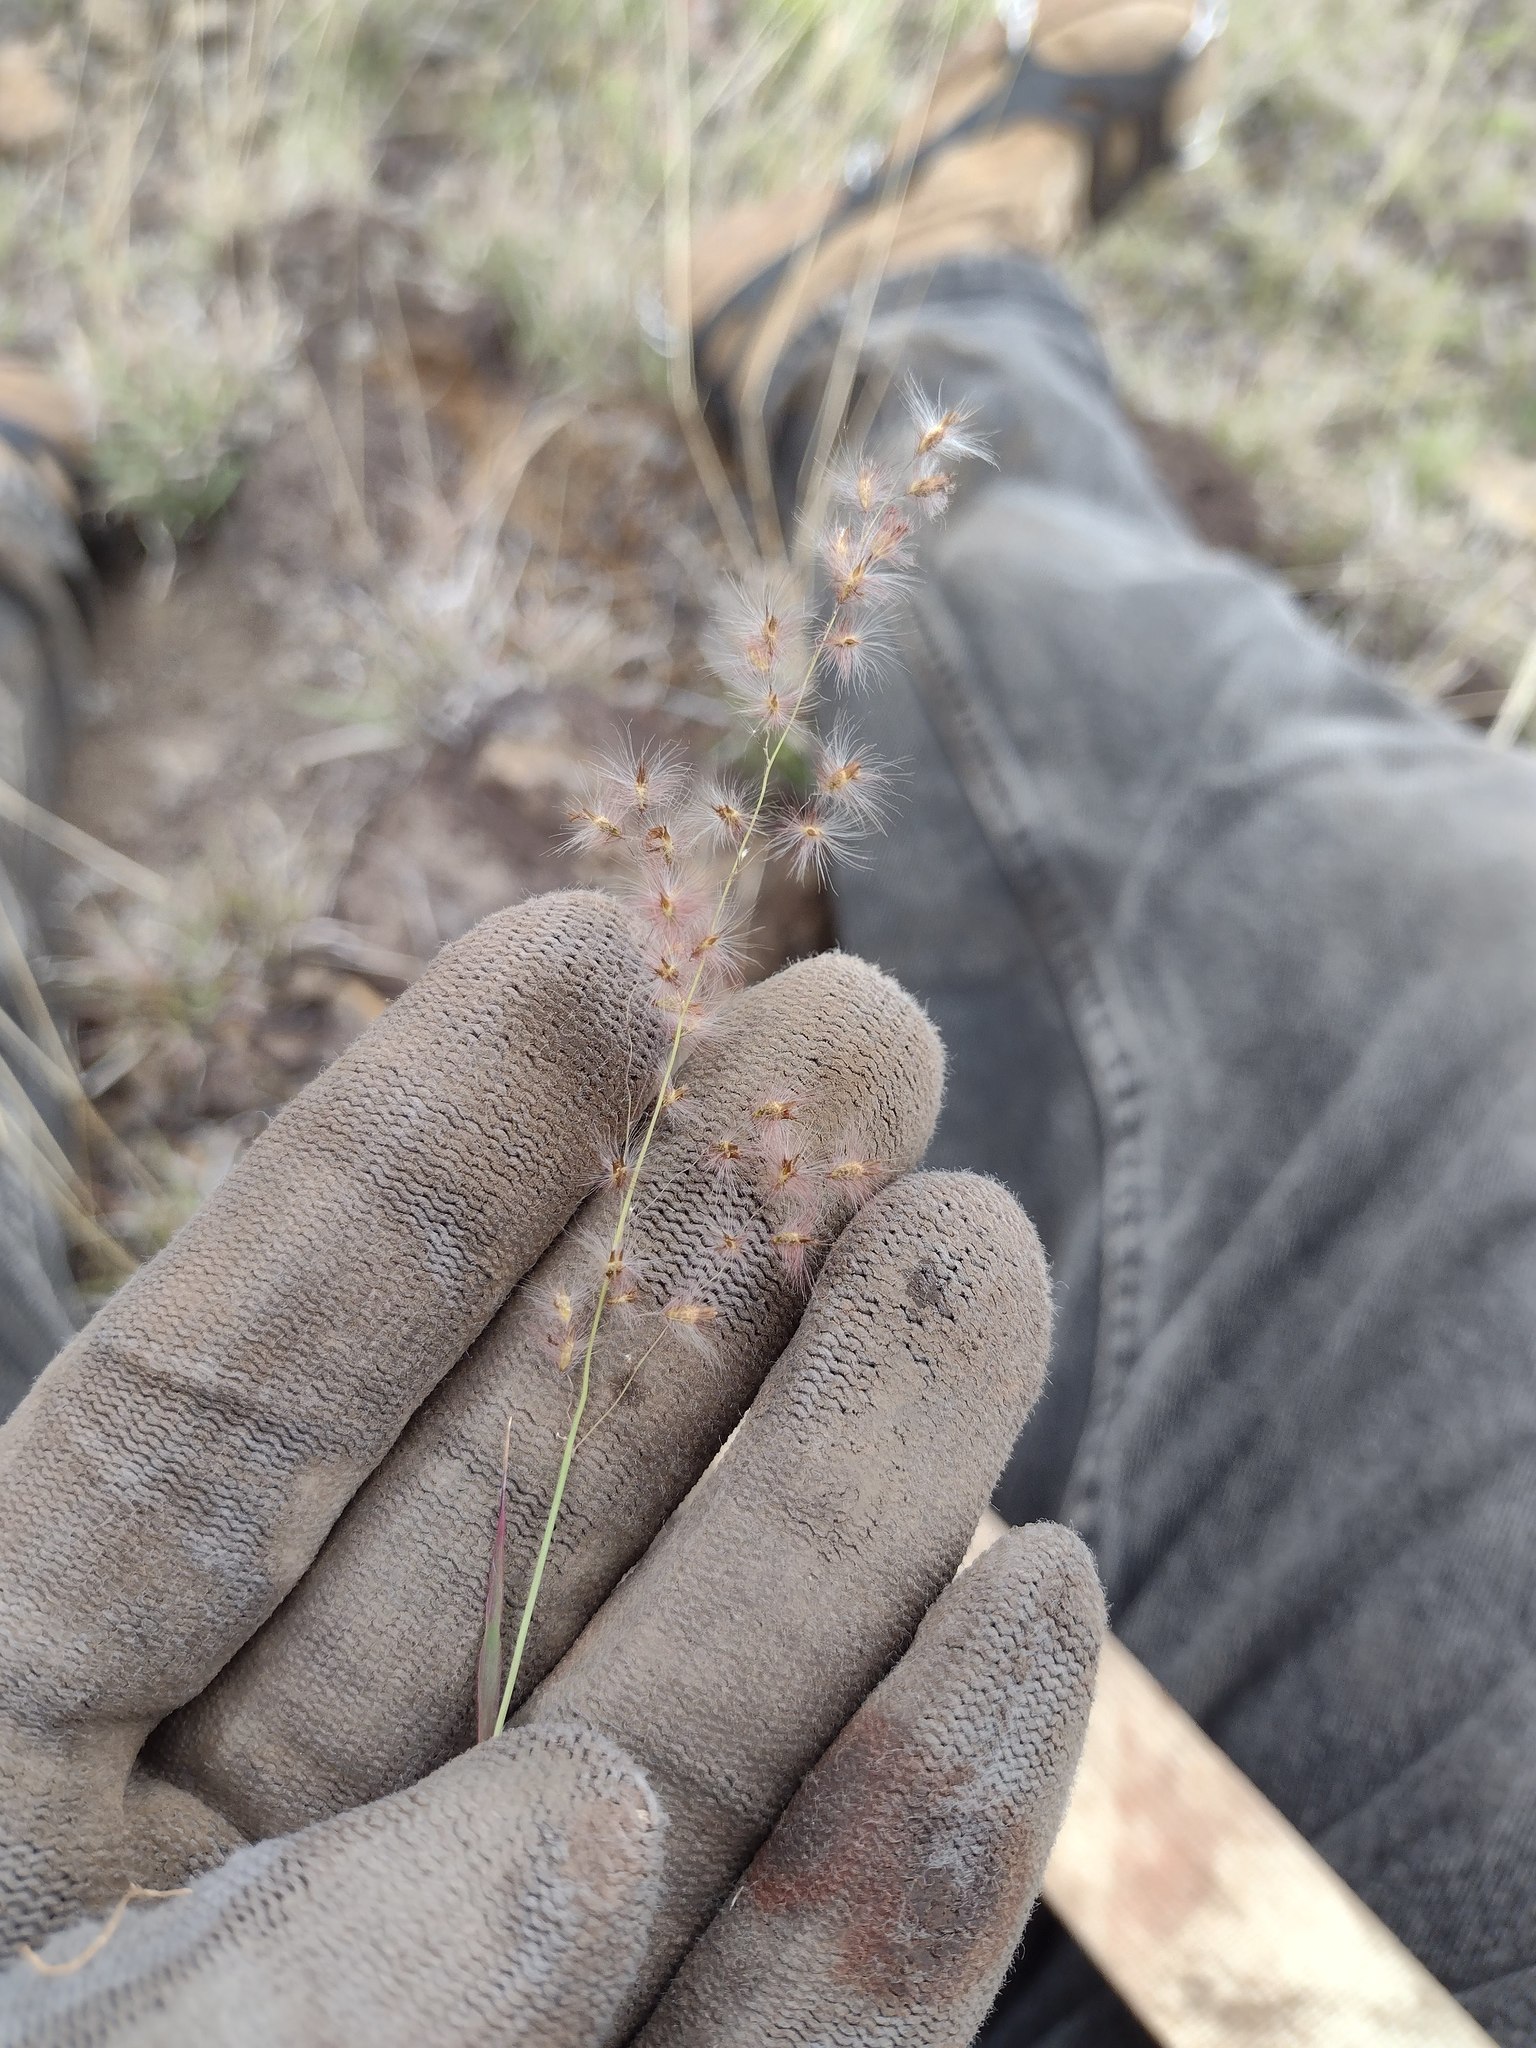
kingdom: Plantae
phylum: Tracheophyta
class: Liliopsida
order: Poales
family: Poaceae
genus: Melinis
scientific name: Melinis repens
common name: Rose natal grass
